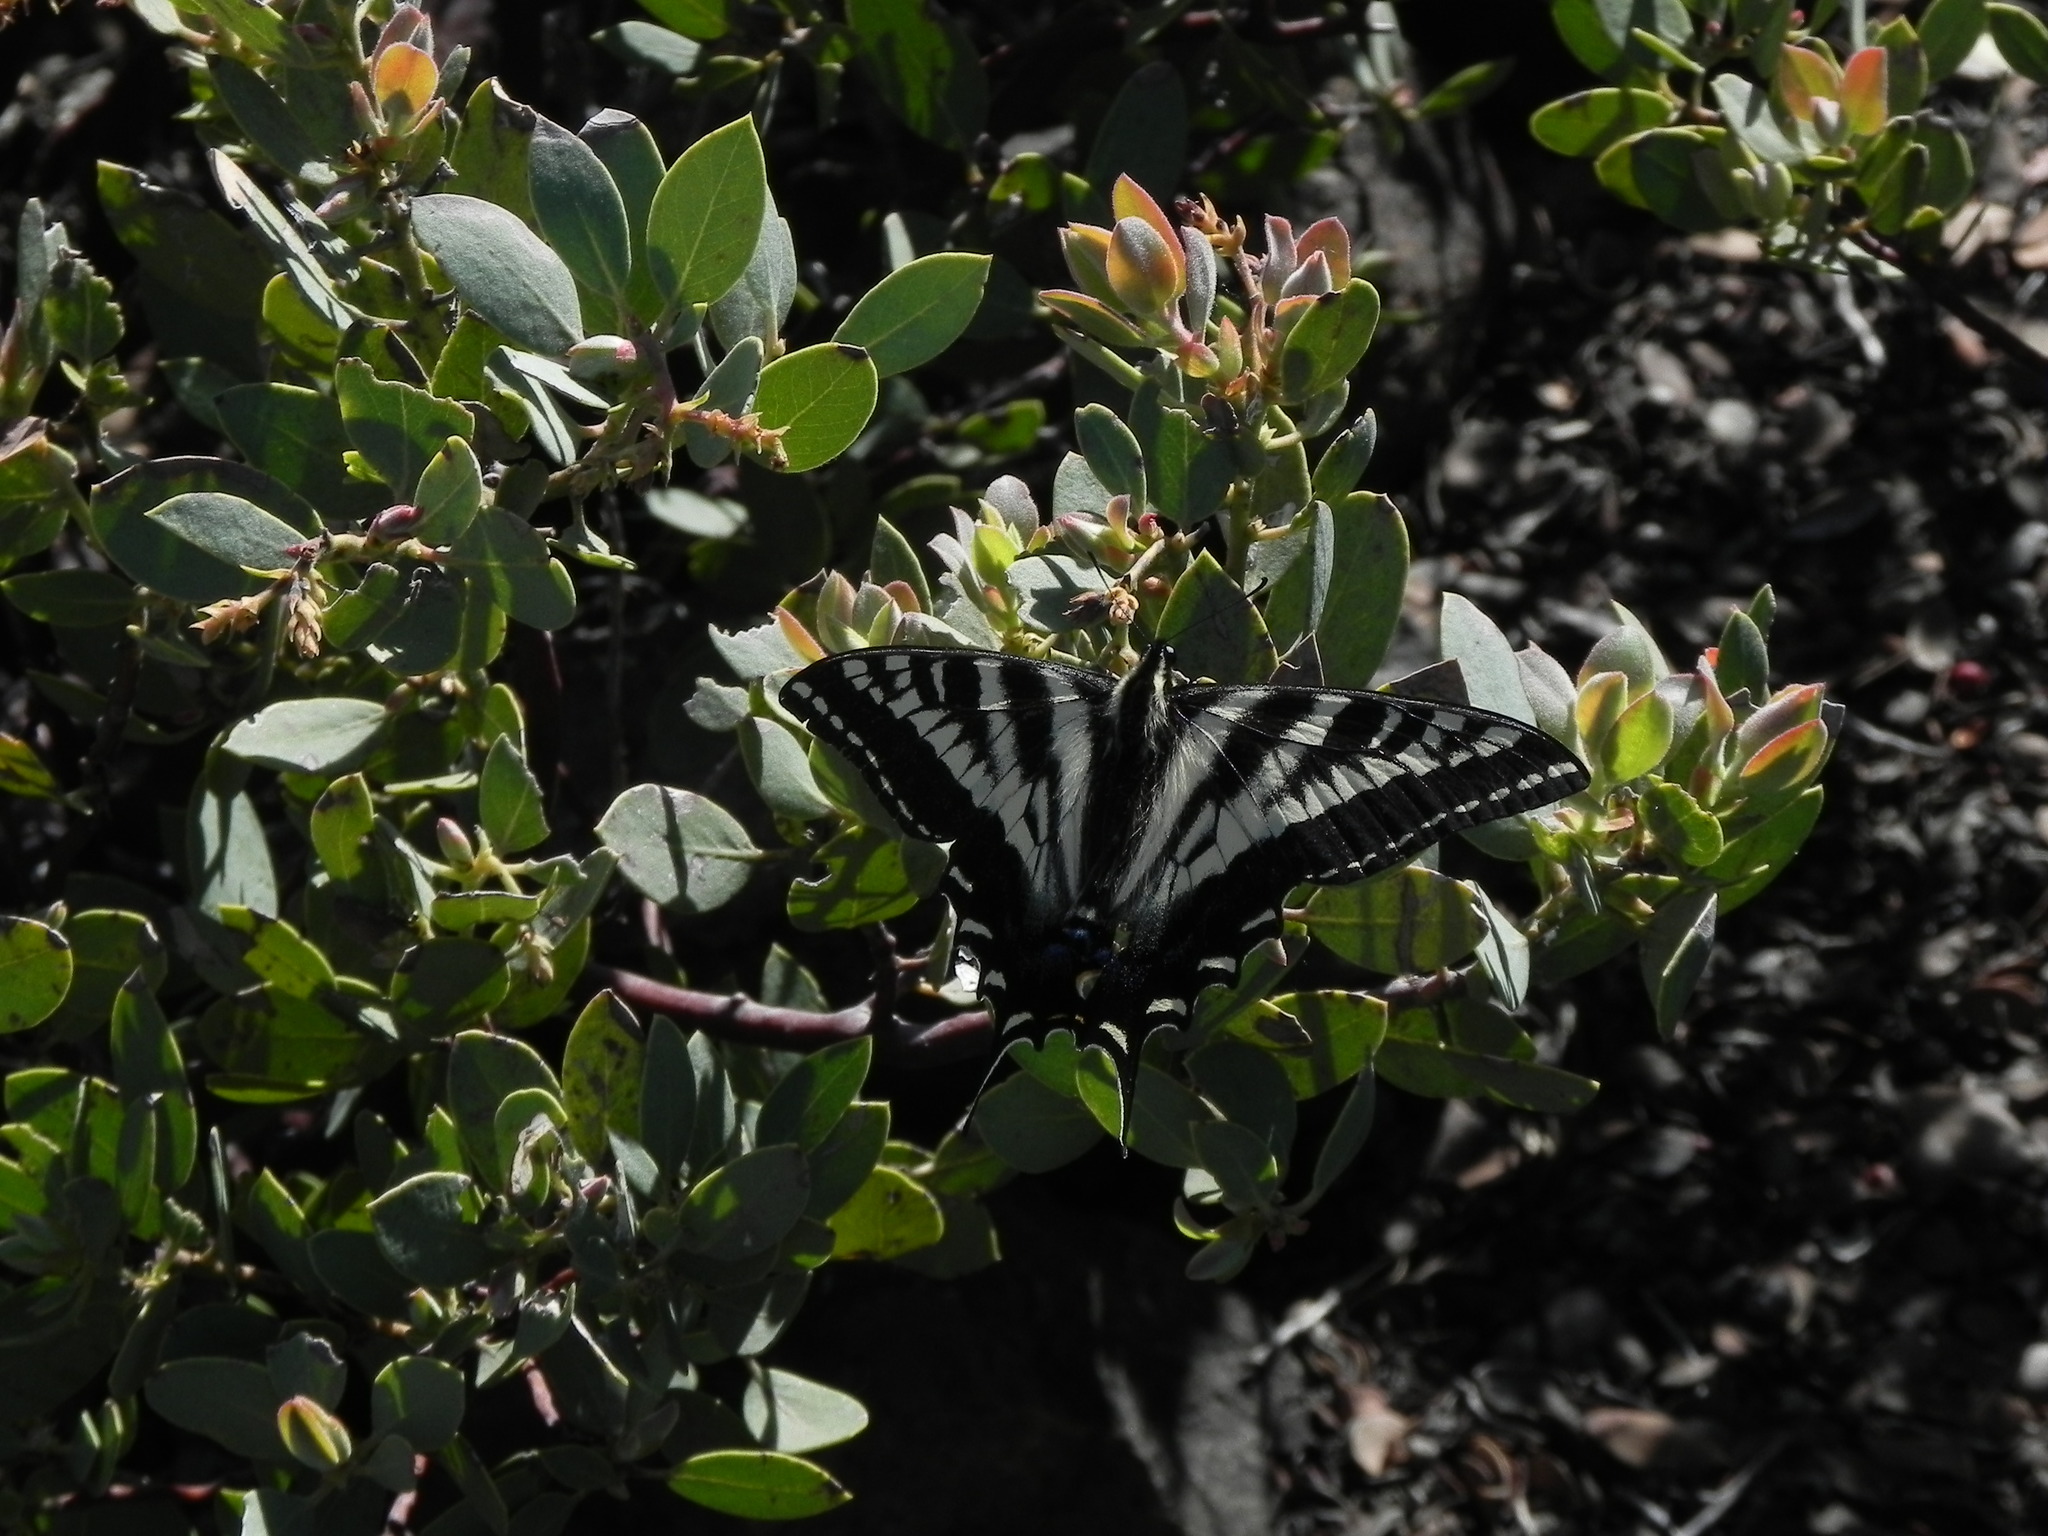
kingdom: Animalia
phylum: Arthropoda
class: Insecta
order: Lepidoptera
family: Papilionidae
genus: Papilio
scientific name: Papilio eurymedon
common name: Pale tiger swallowtail
